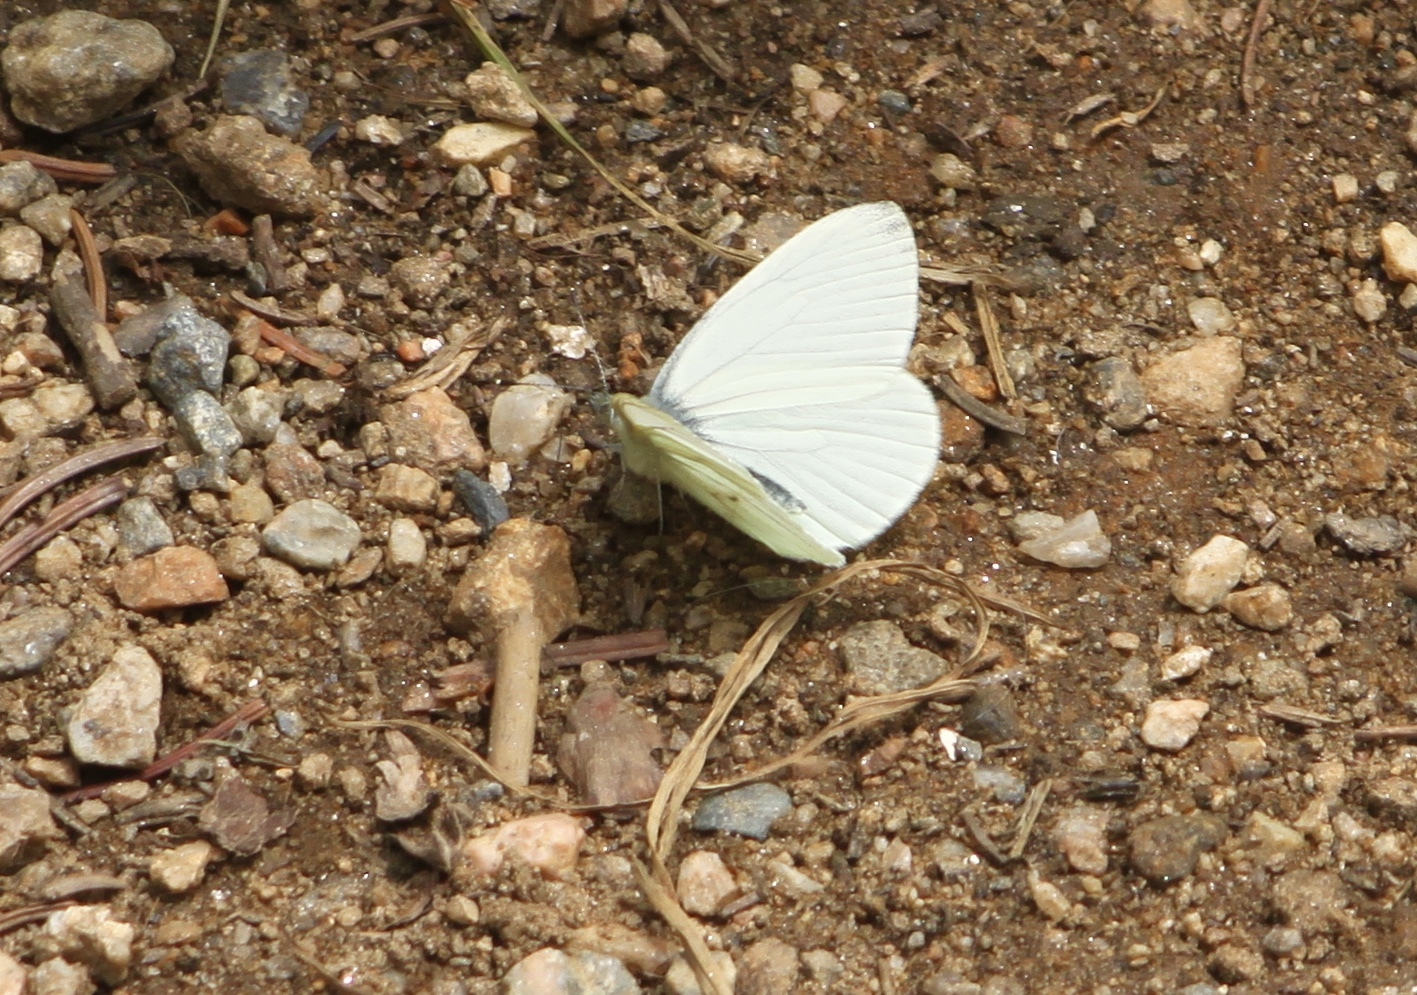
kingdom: Animalia
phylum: Arthropoda
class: Insecta
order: Lepidoptera
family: Pieridae
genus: Pieris
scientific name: Pieris marginalis
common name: Margined white
